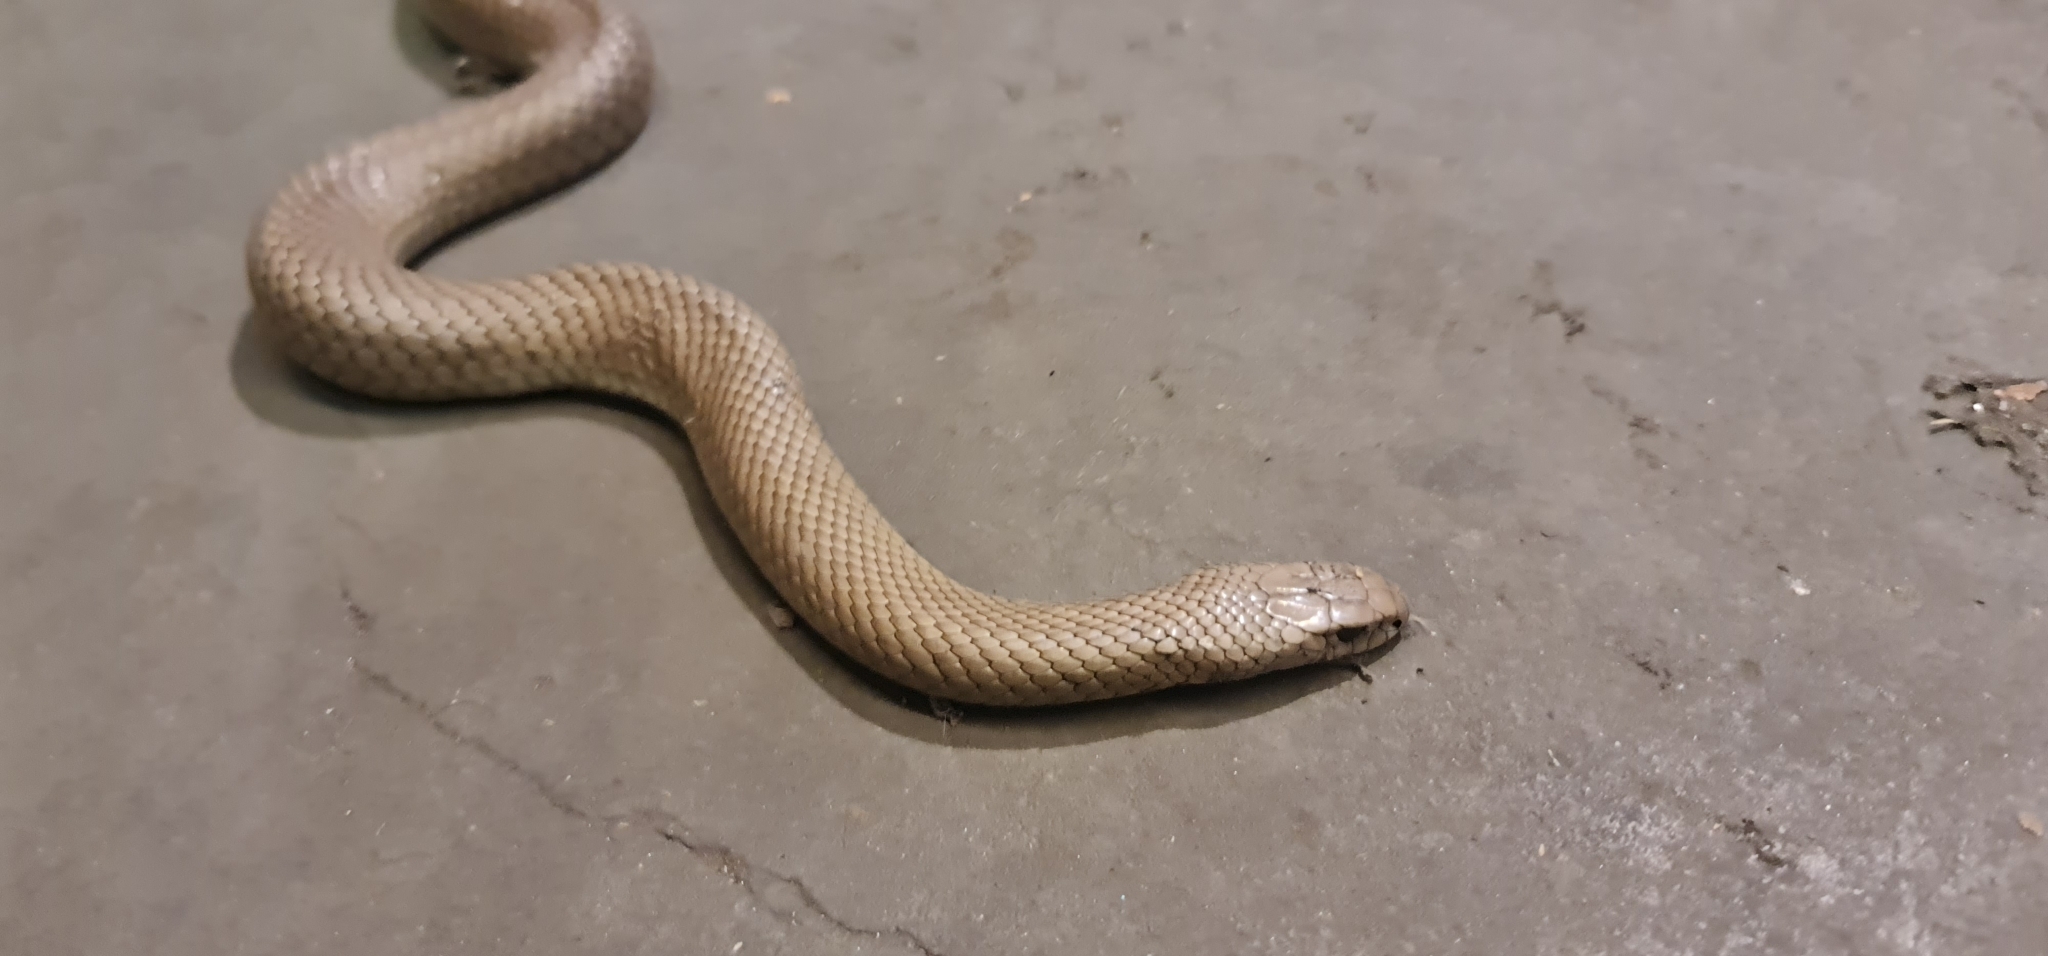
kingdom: Animalia
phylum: Chordata
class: Squamata
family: Elapidae
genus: Pseudonaja
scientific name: Pseudonaja textilis
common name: Eastern brown snake
